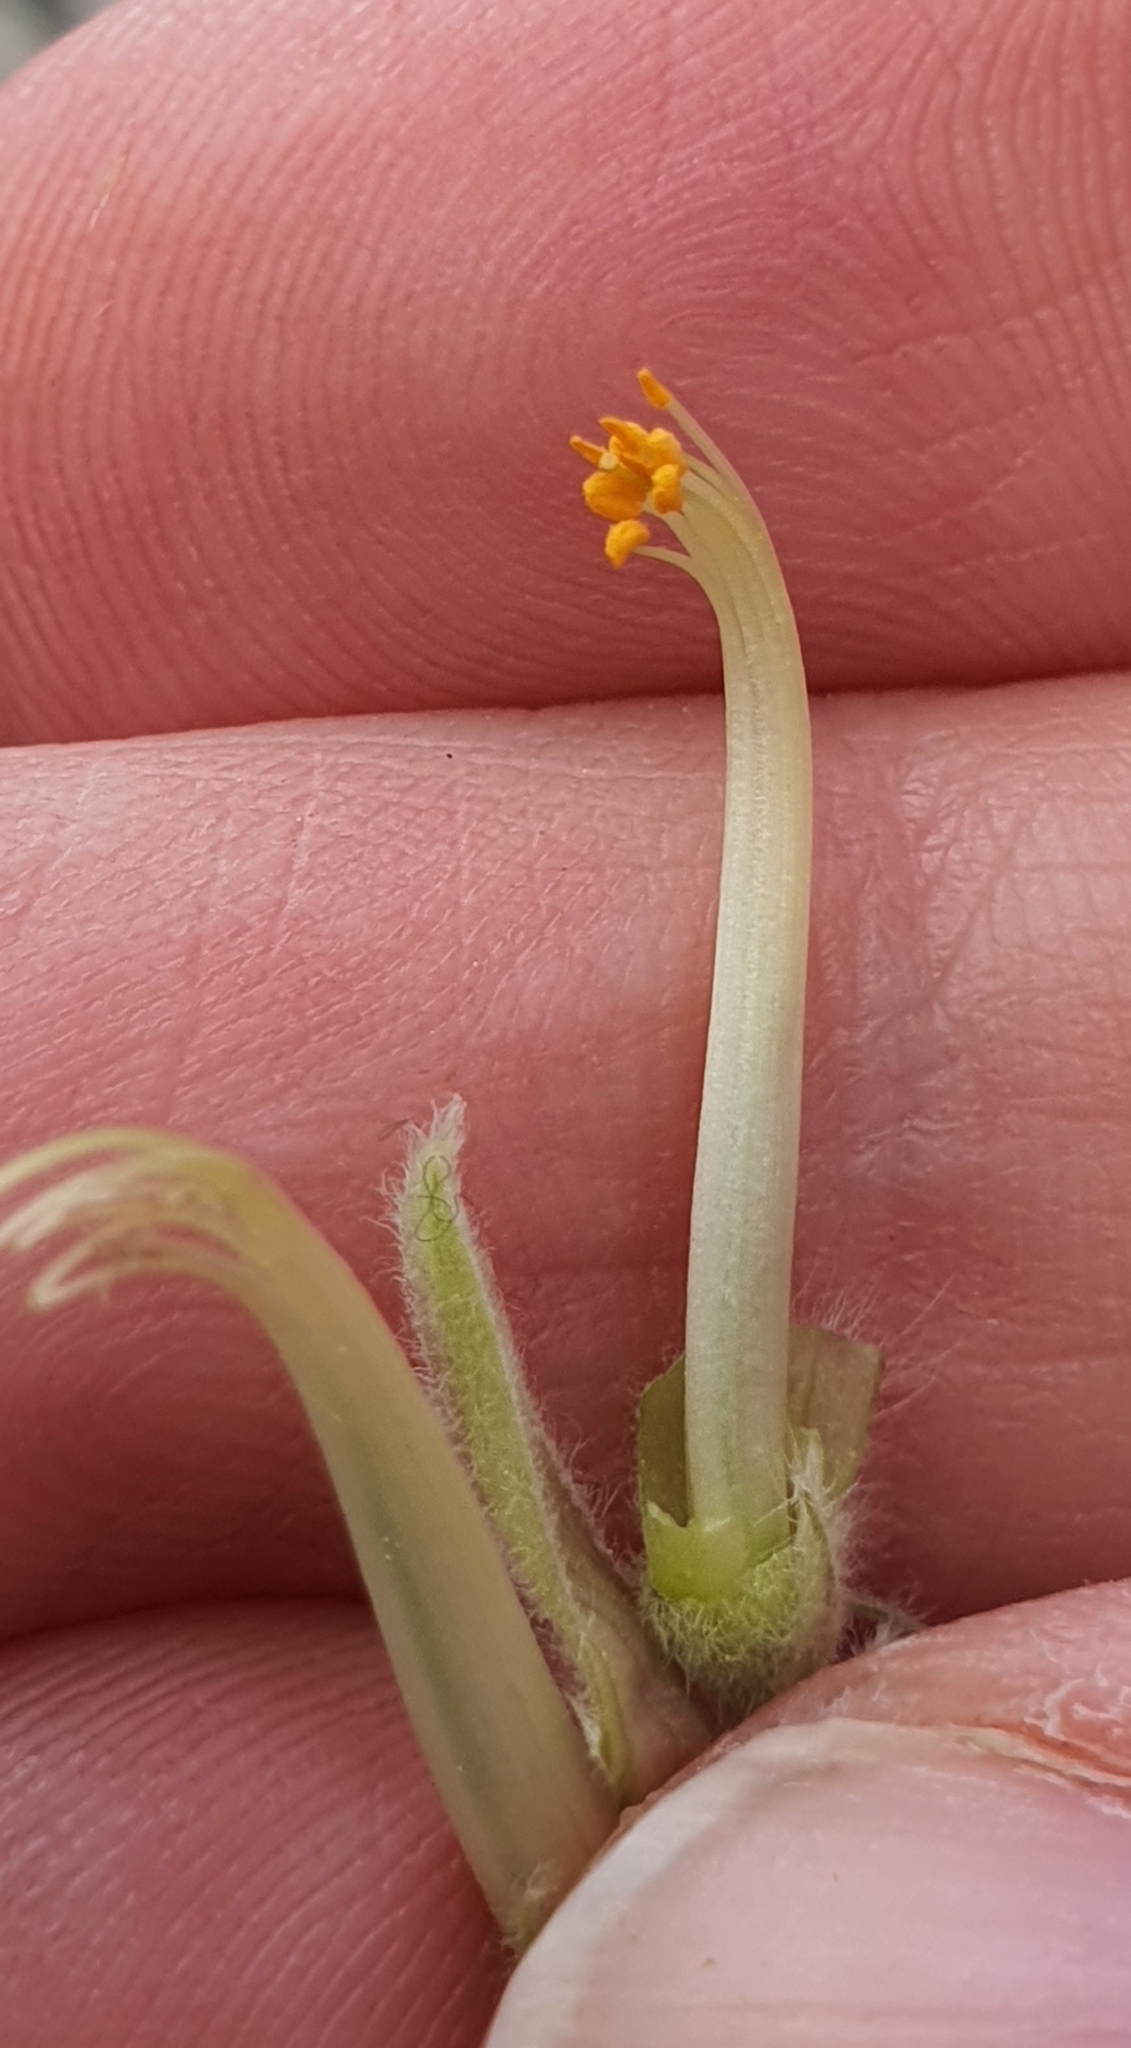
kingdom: Plantae
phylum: Tracheophyta
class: Magnoliopsida
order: Fabales
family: Fabaceae
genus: Chamaecytisus
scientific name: Chamaecytisus prolifer
